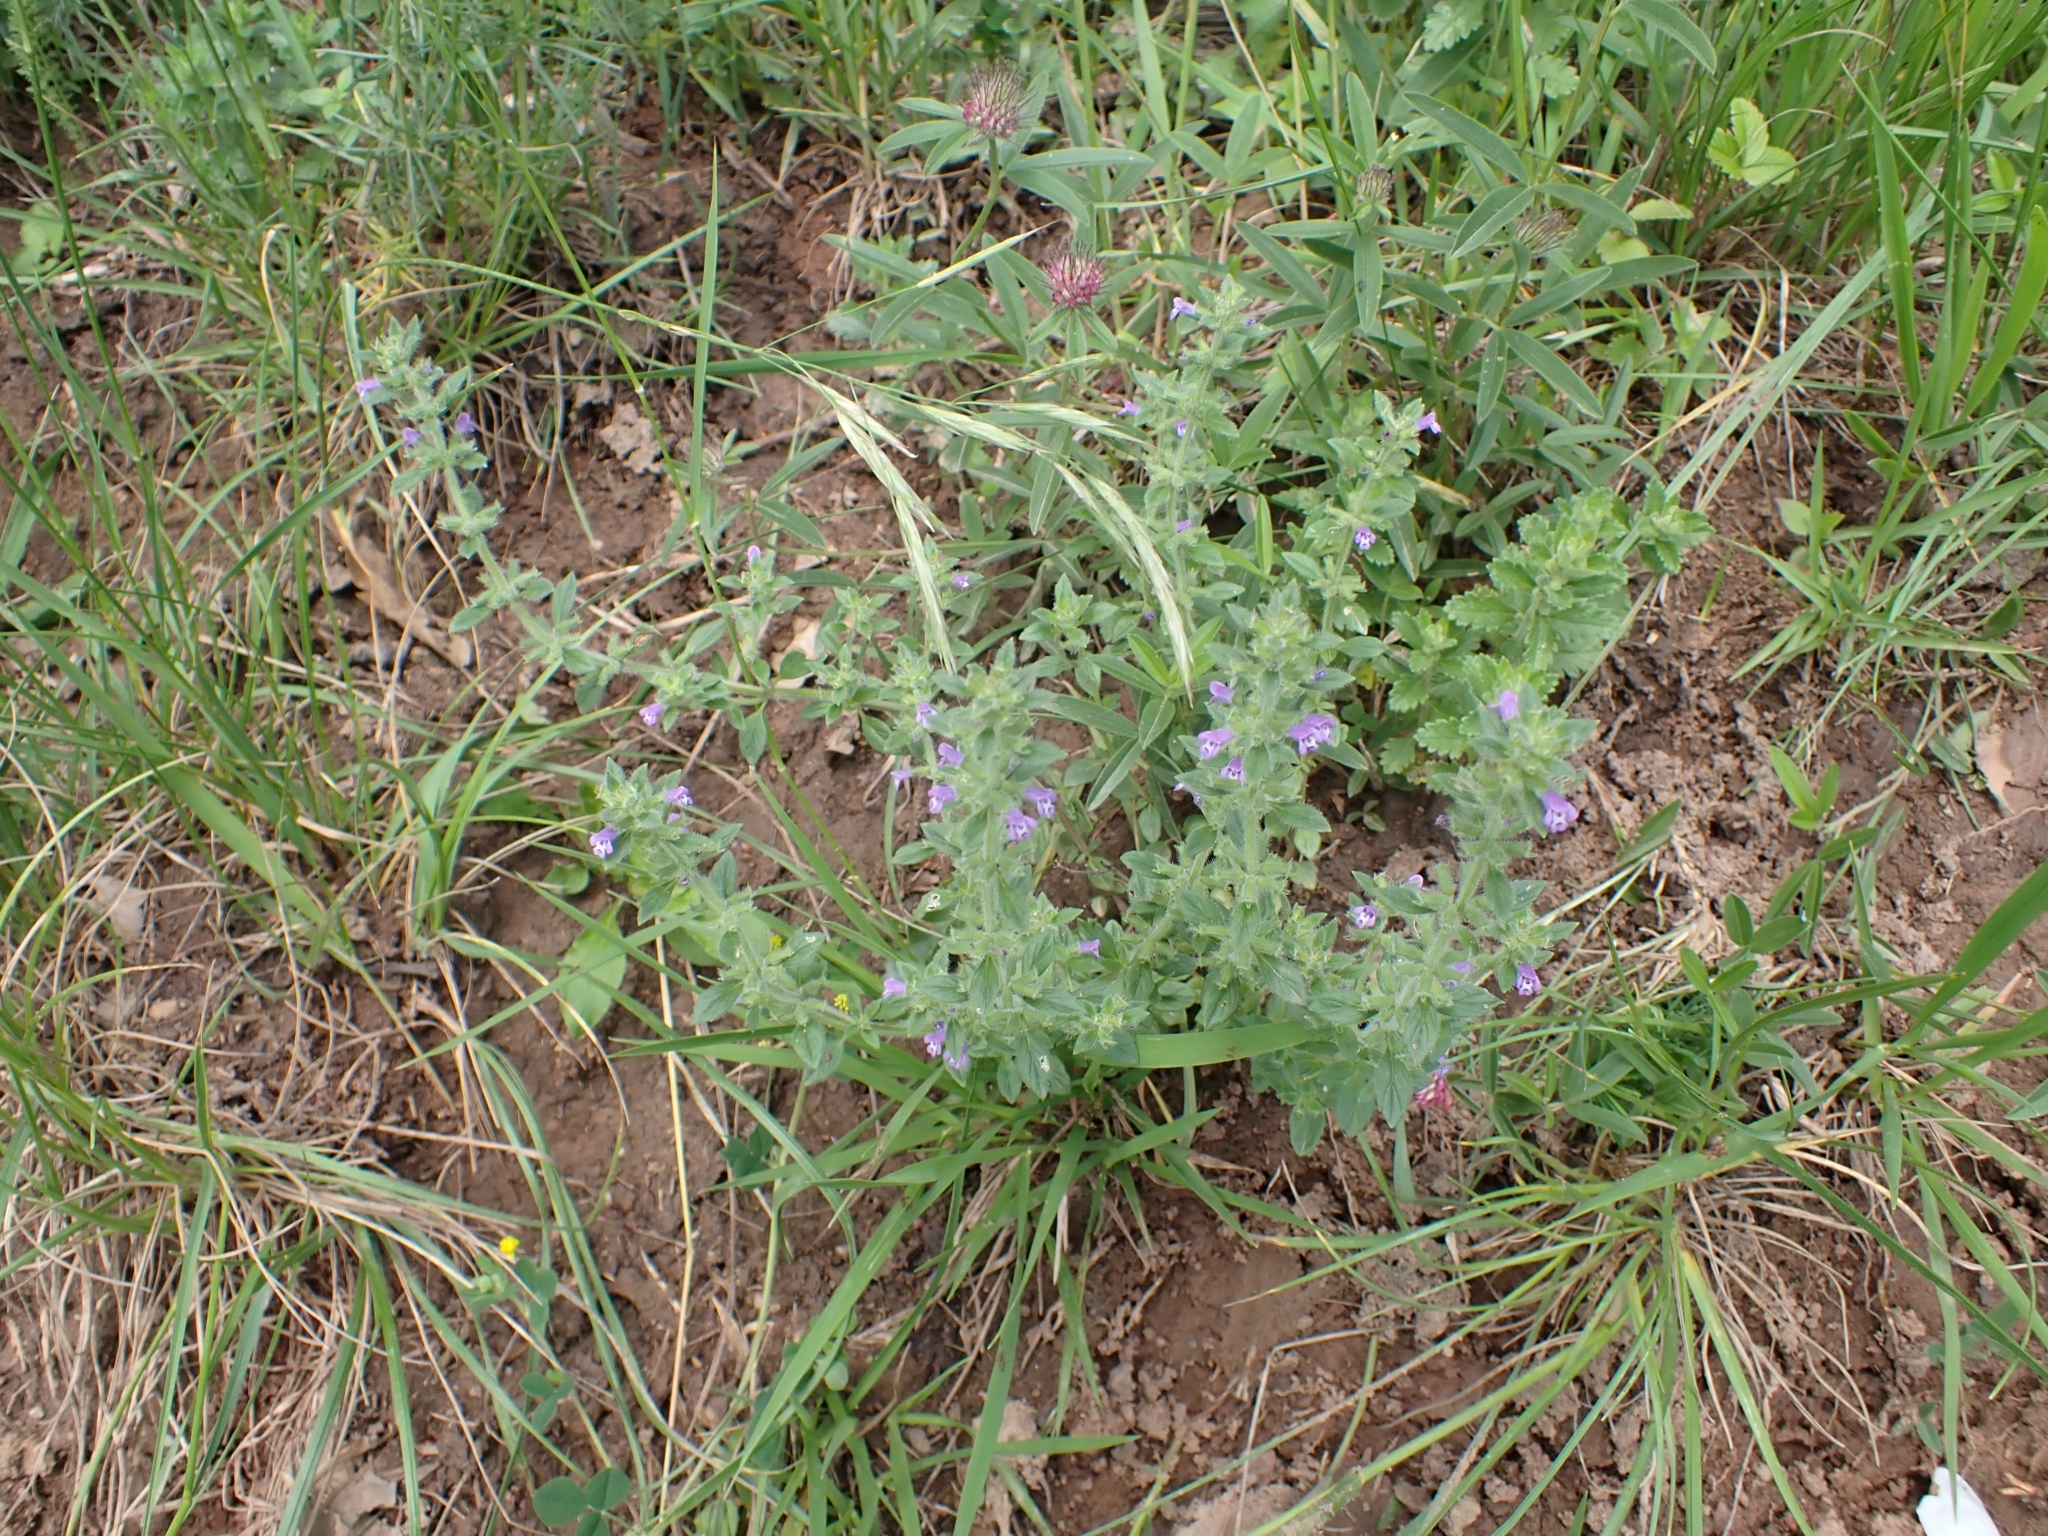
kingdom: Plantae
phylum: Tracheophyta
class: Magnoliopsida
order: Lamiales
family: Lamiaceae
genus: Clinopodium
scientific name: Clinopodium acinos
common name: Basil thyme
